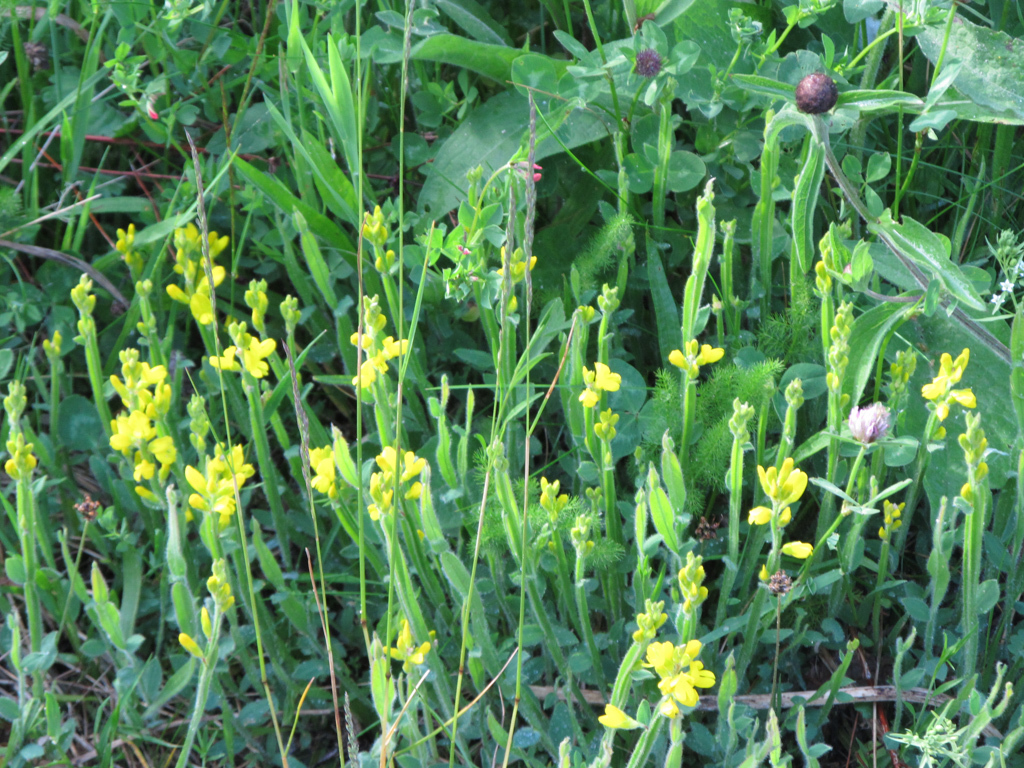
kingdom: Plantae
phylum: Tracheophyta
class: Magnoliopsida
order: Fabales
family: Fabaceae
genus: Genista
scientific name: Genista sagittalis
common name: Winged greenweed
